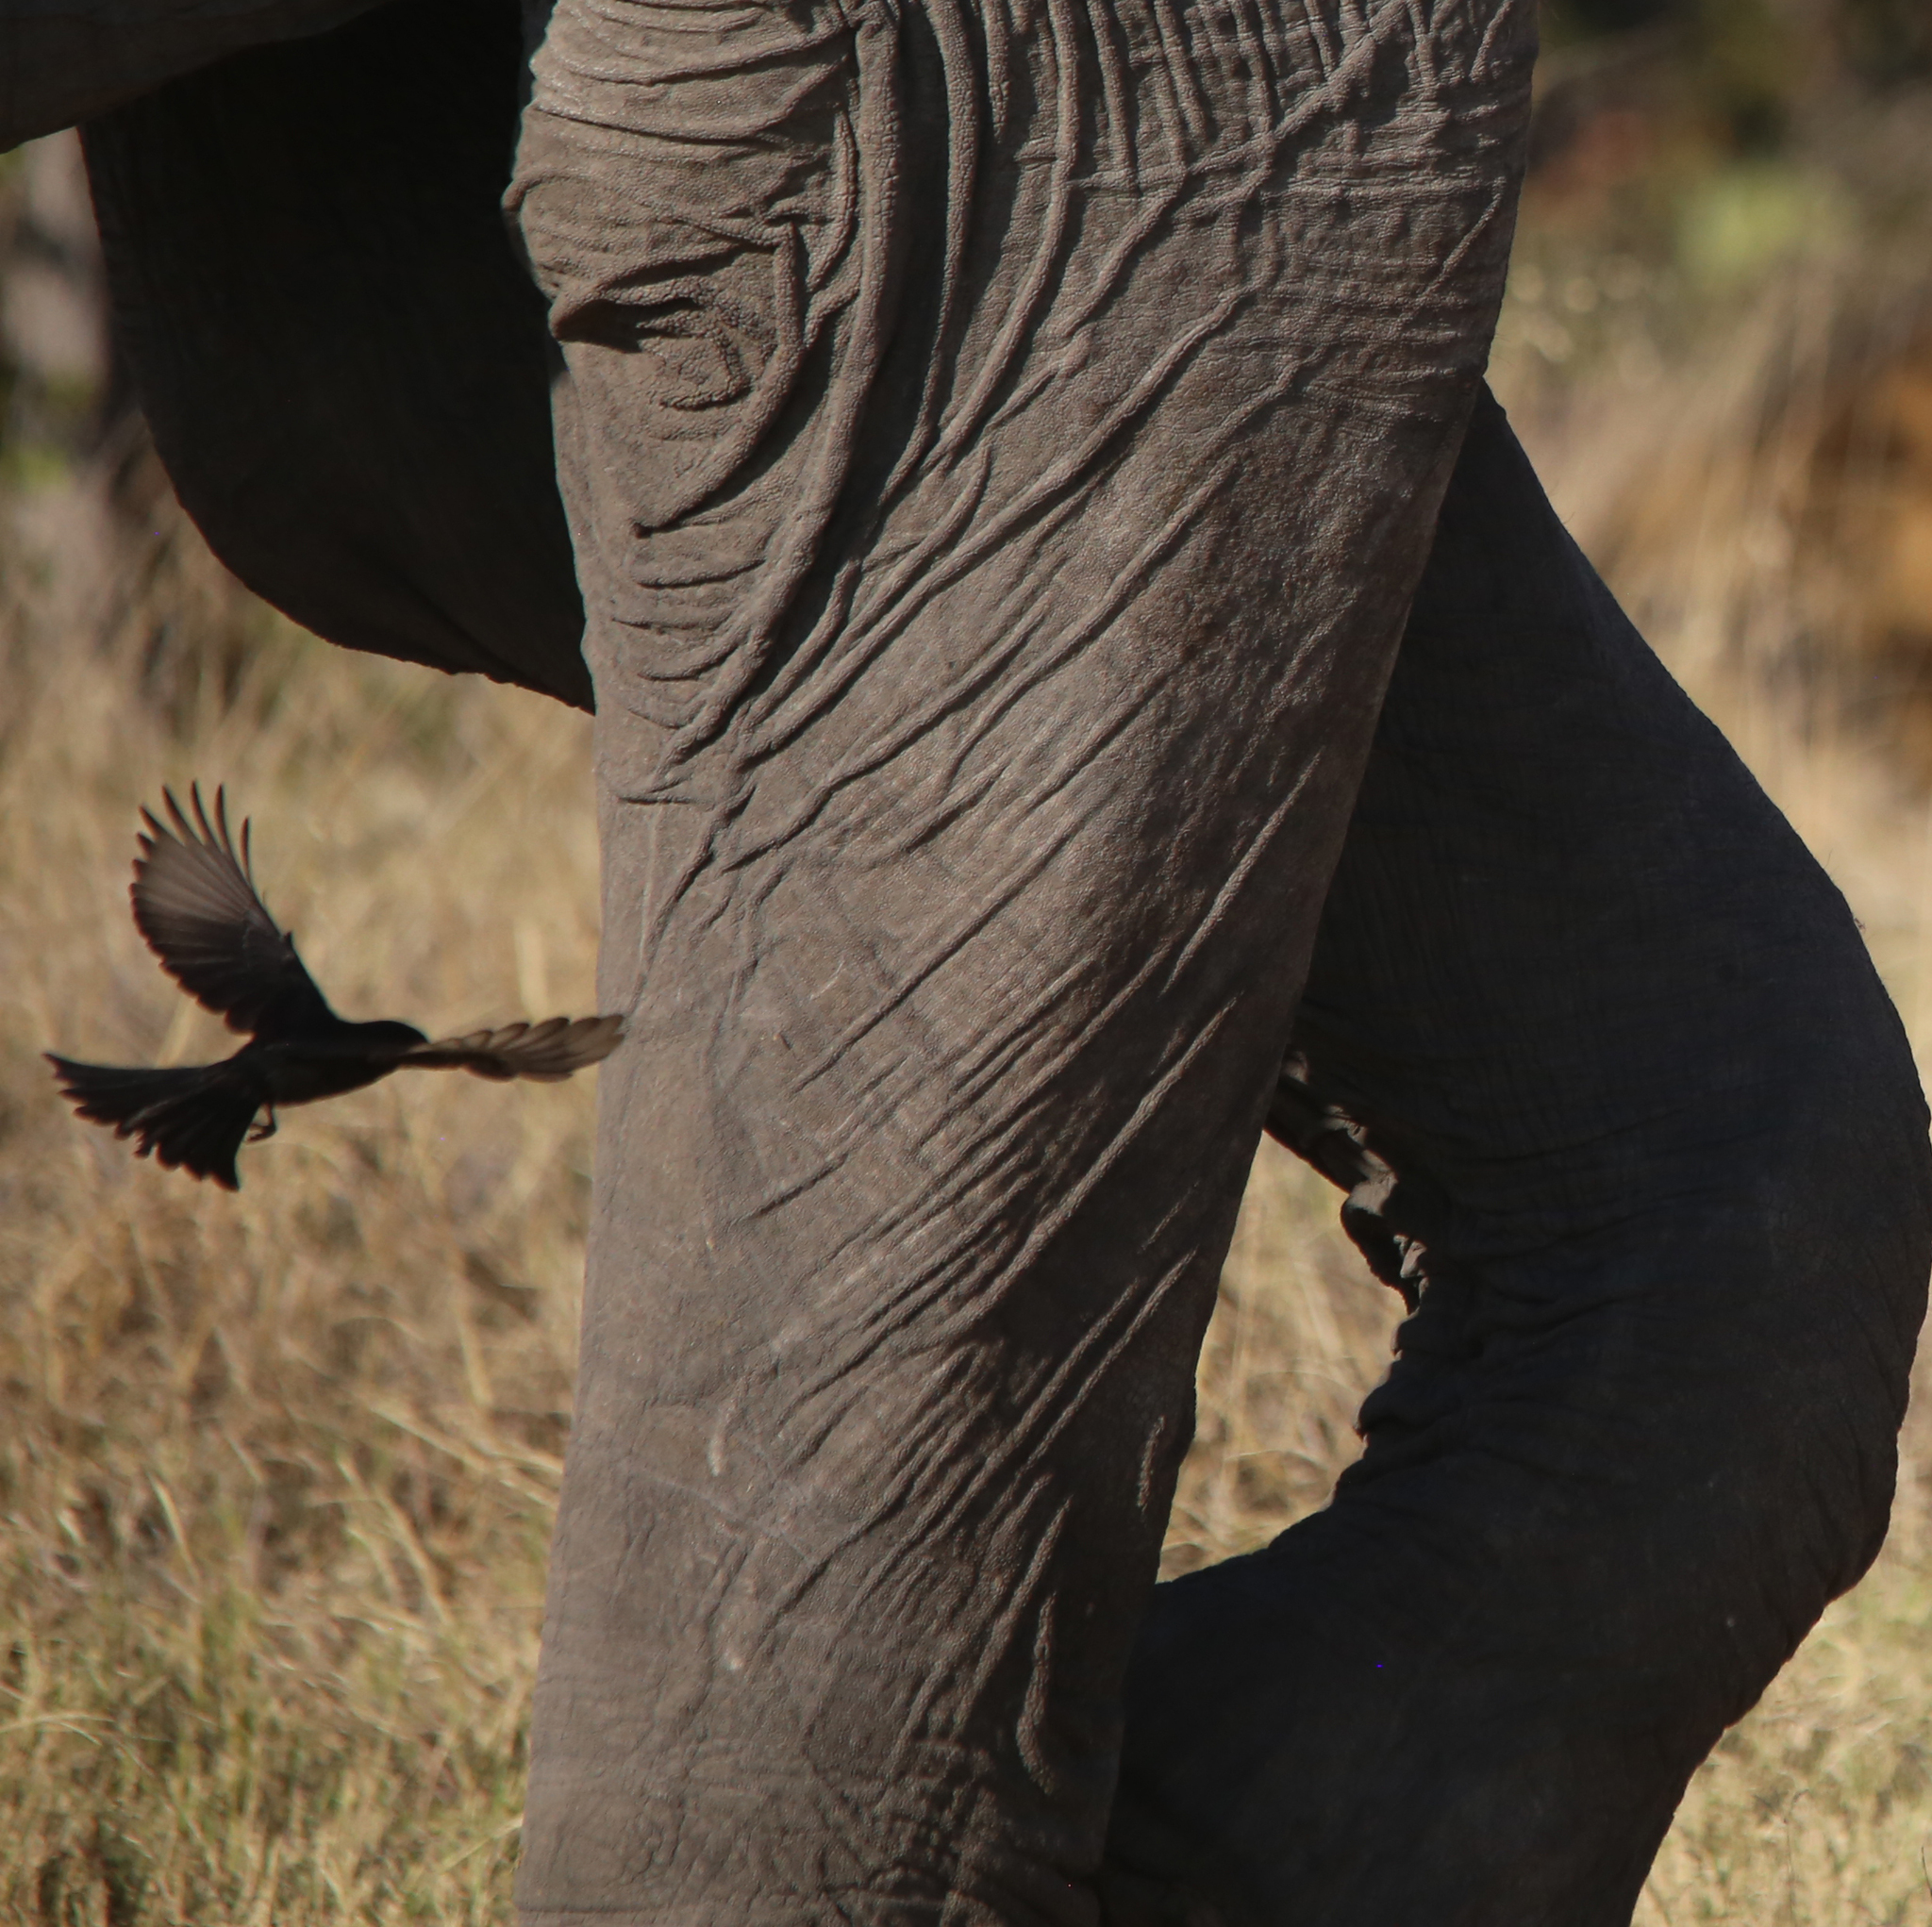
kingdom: Animalia
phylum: Chordata
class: Aves
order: Passeriformes
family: Dicruridae
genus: Dicrurus
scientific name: Dicrurus adsimilis
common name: Fork-tailed drongo
